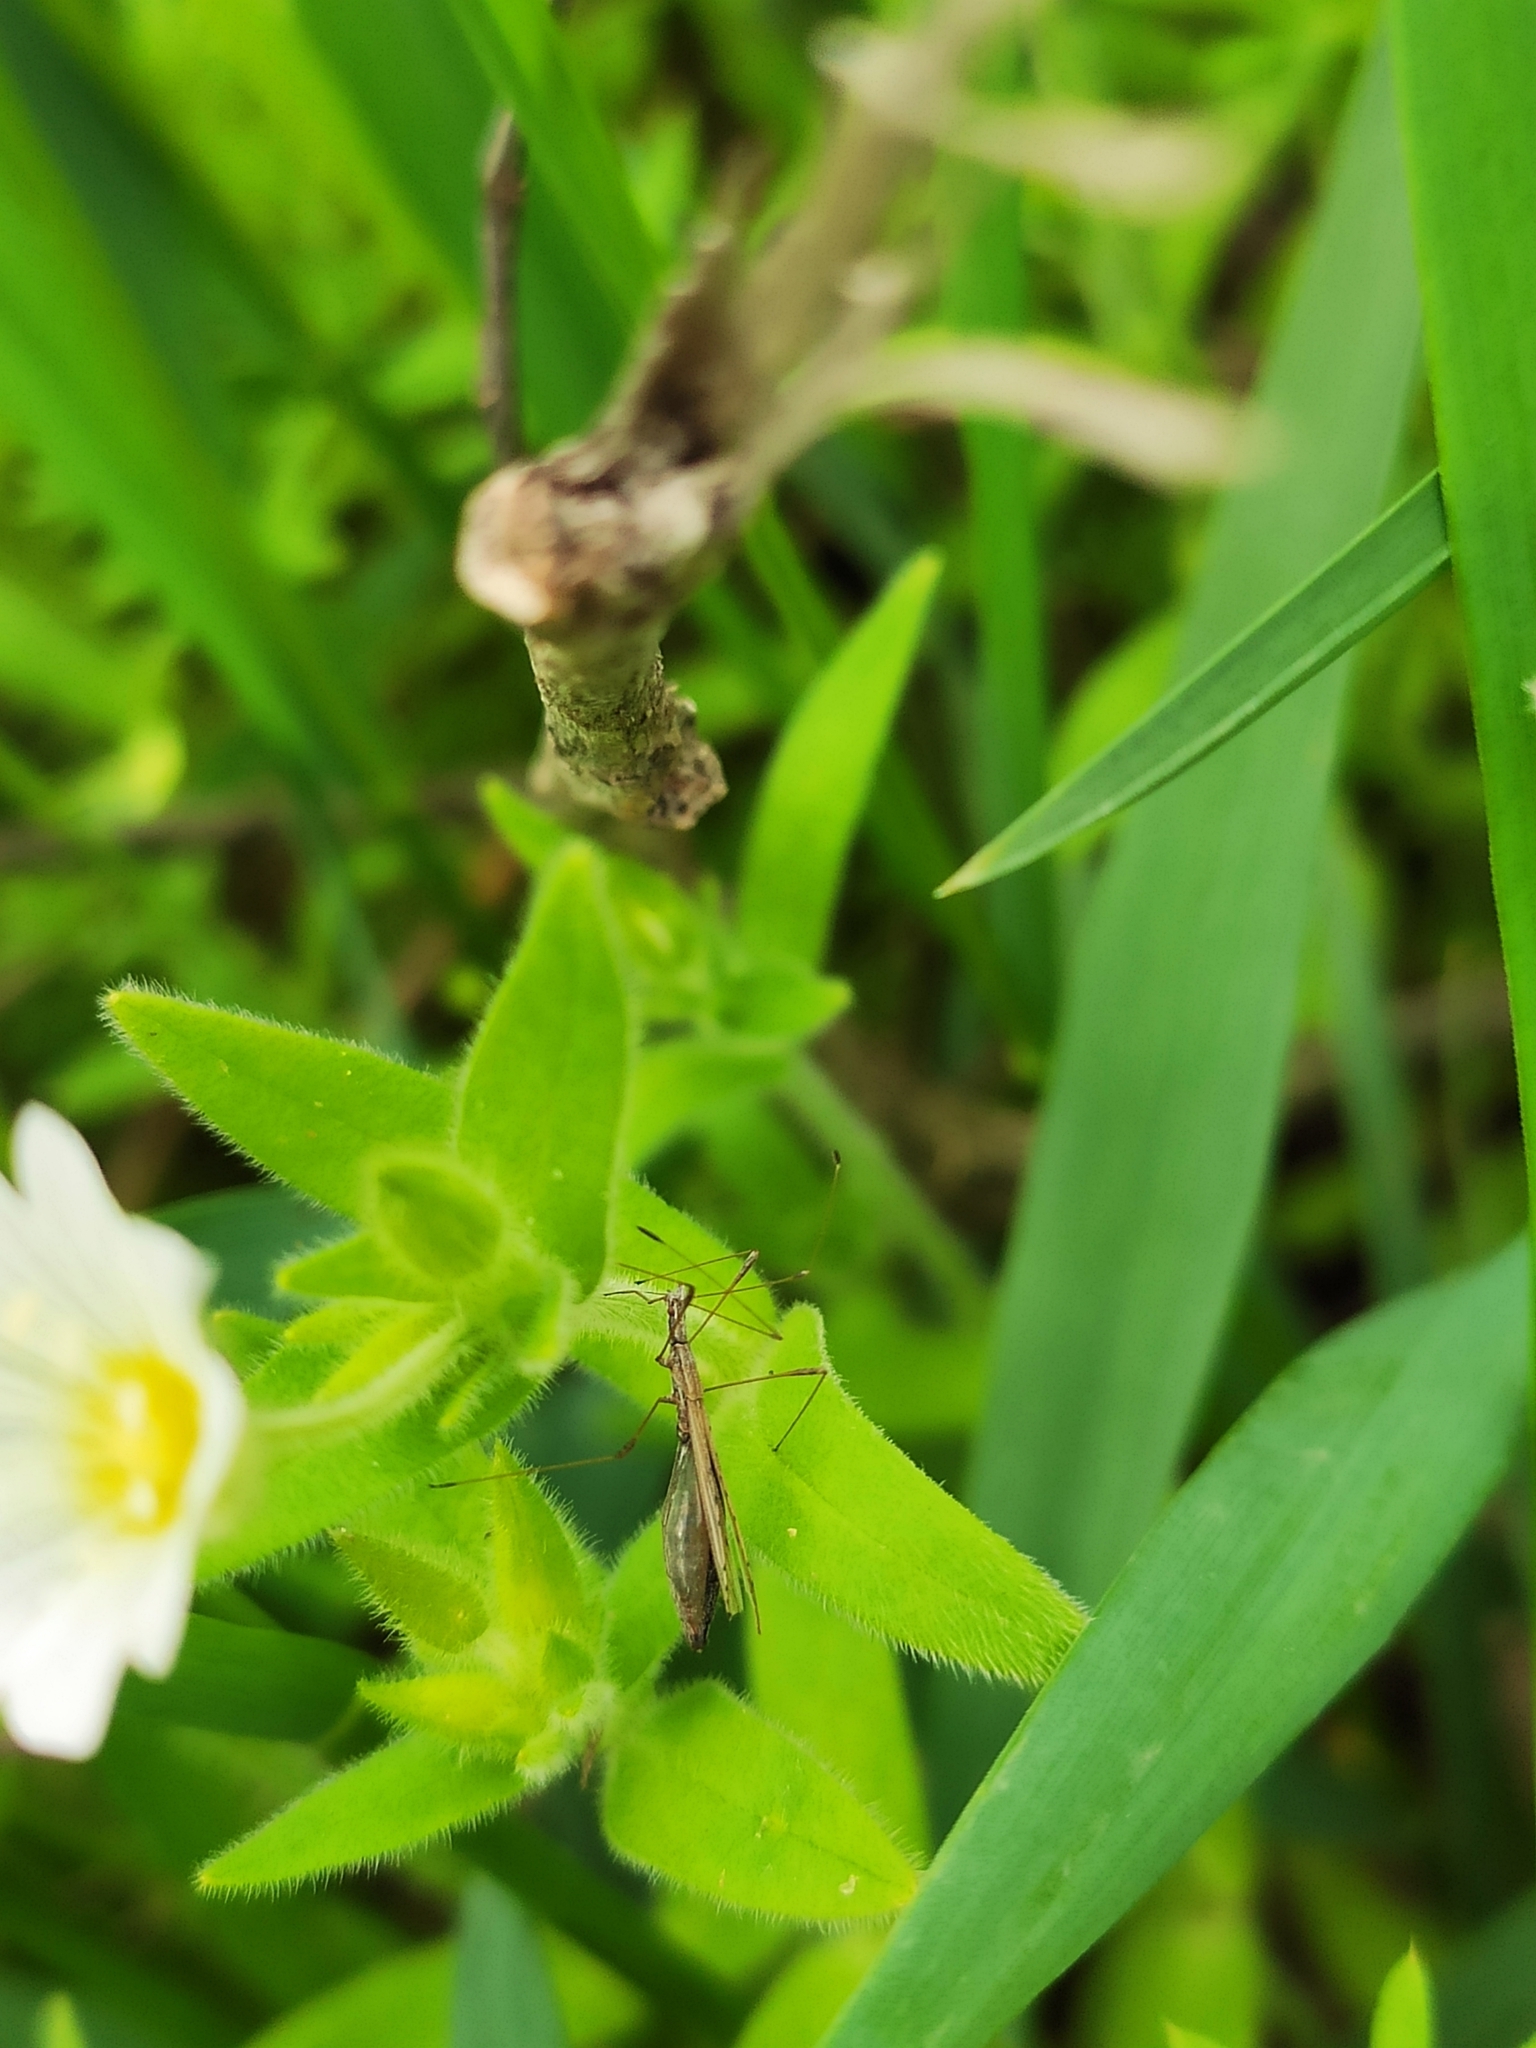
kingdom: Animalia
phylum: Arthropoda
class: Insecta
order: Hemiptera
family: Berytidae
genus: Neides
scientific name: Neides tipularius
